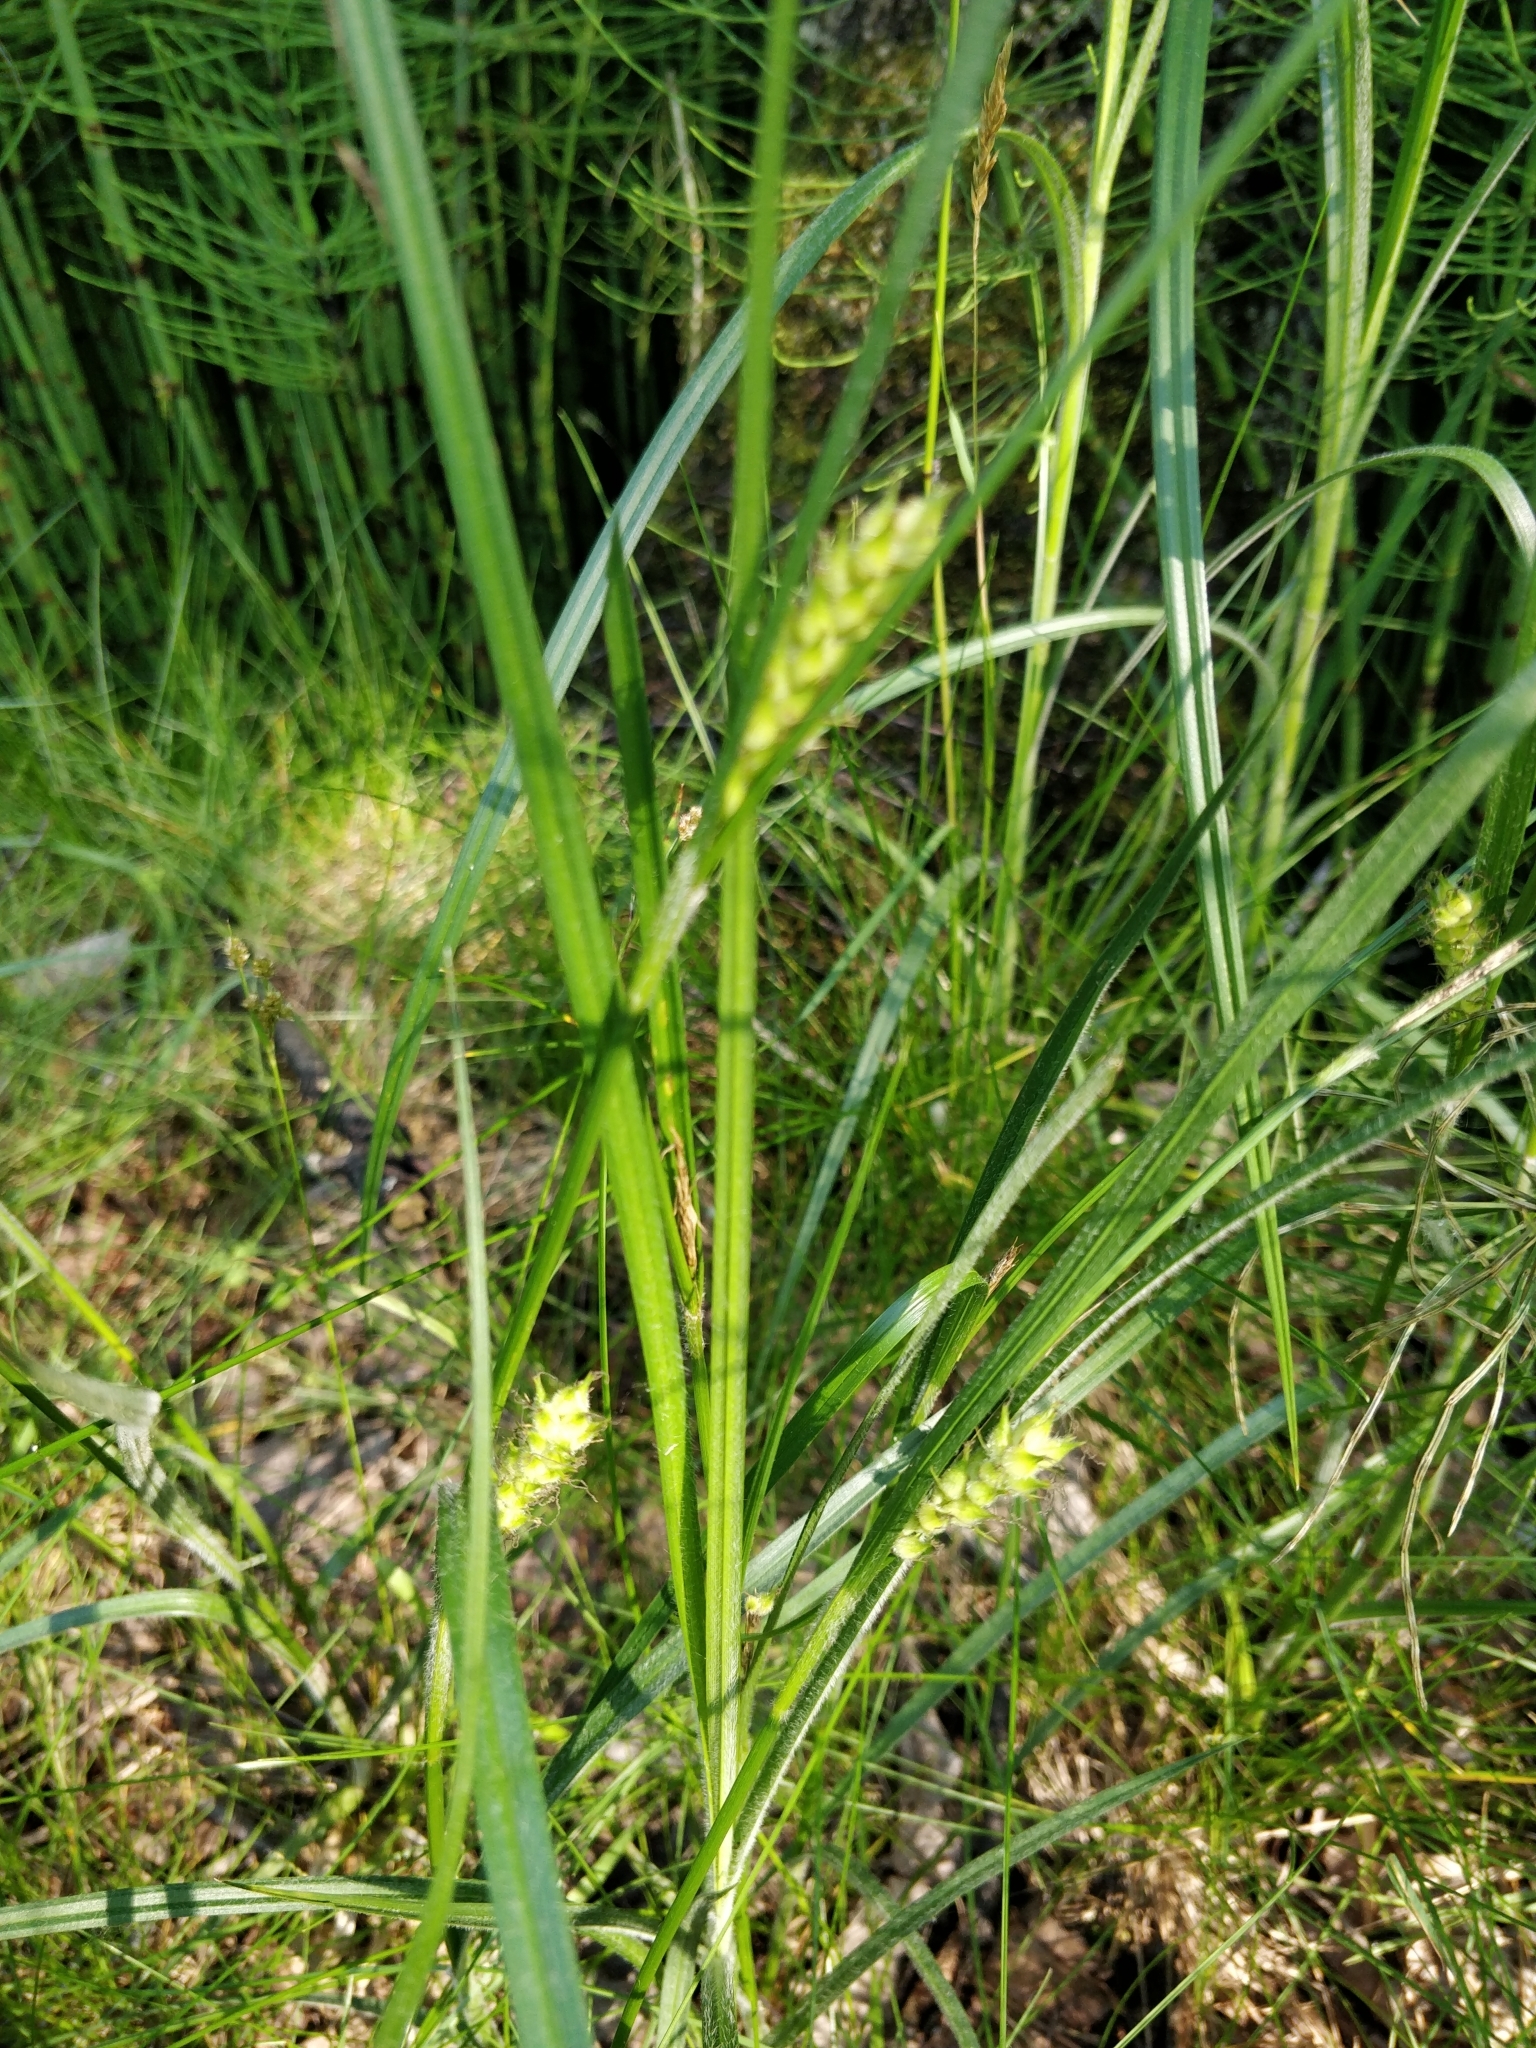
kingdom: Plantae
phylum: Tracheophyta
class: Liliopsida
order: Poales
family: Cyperaceae
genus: Carex
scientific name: Carex hirta
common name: Hairy sedge
